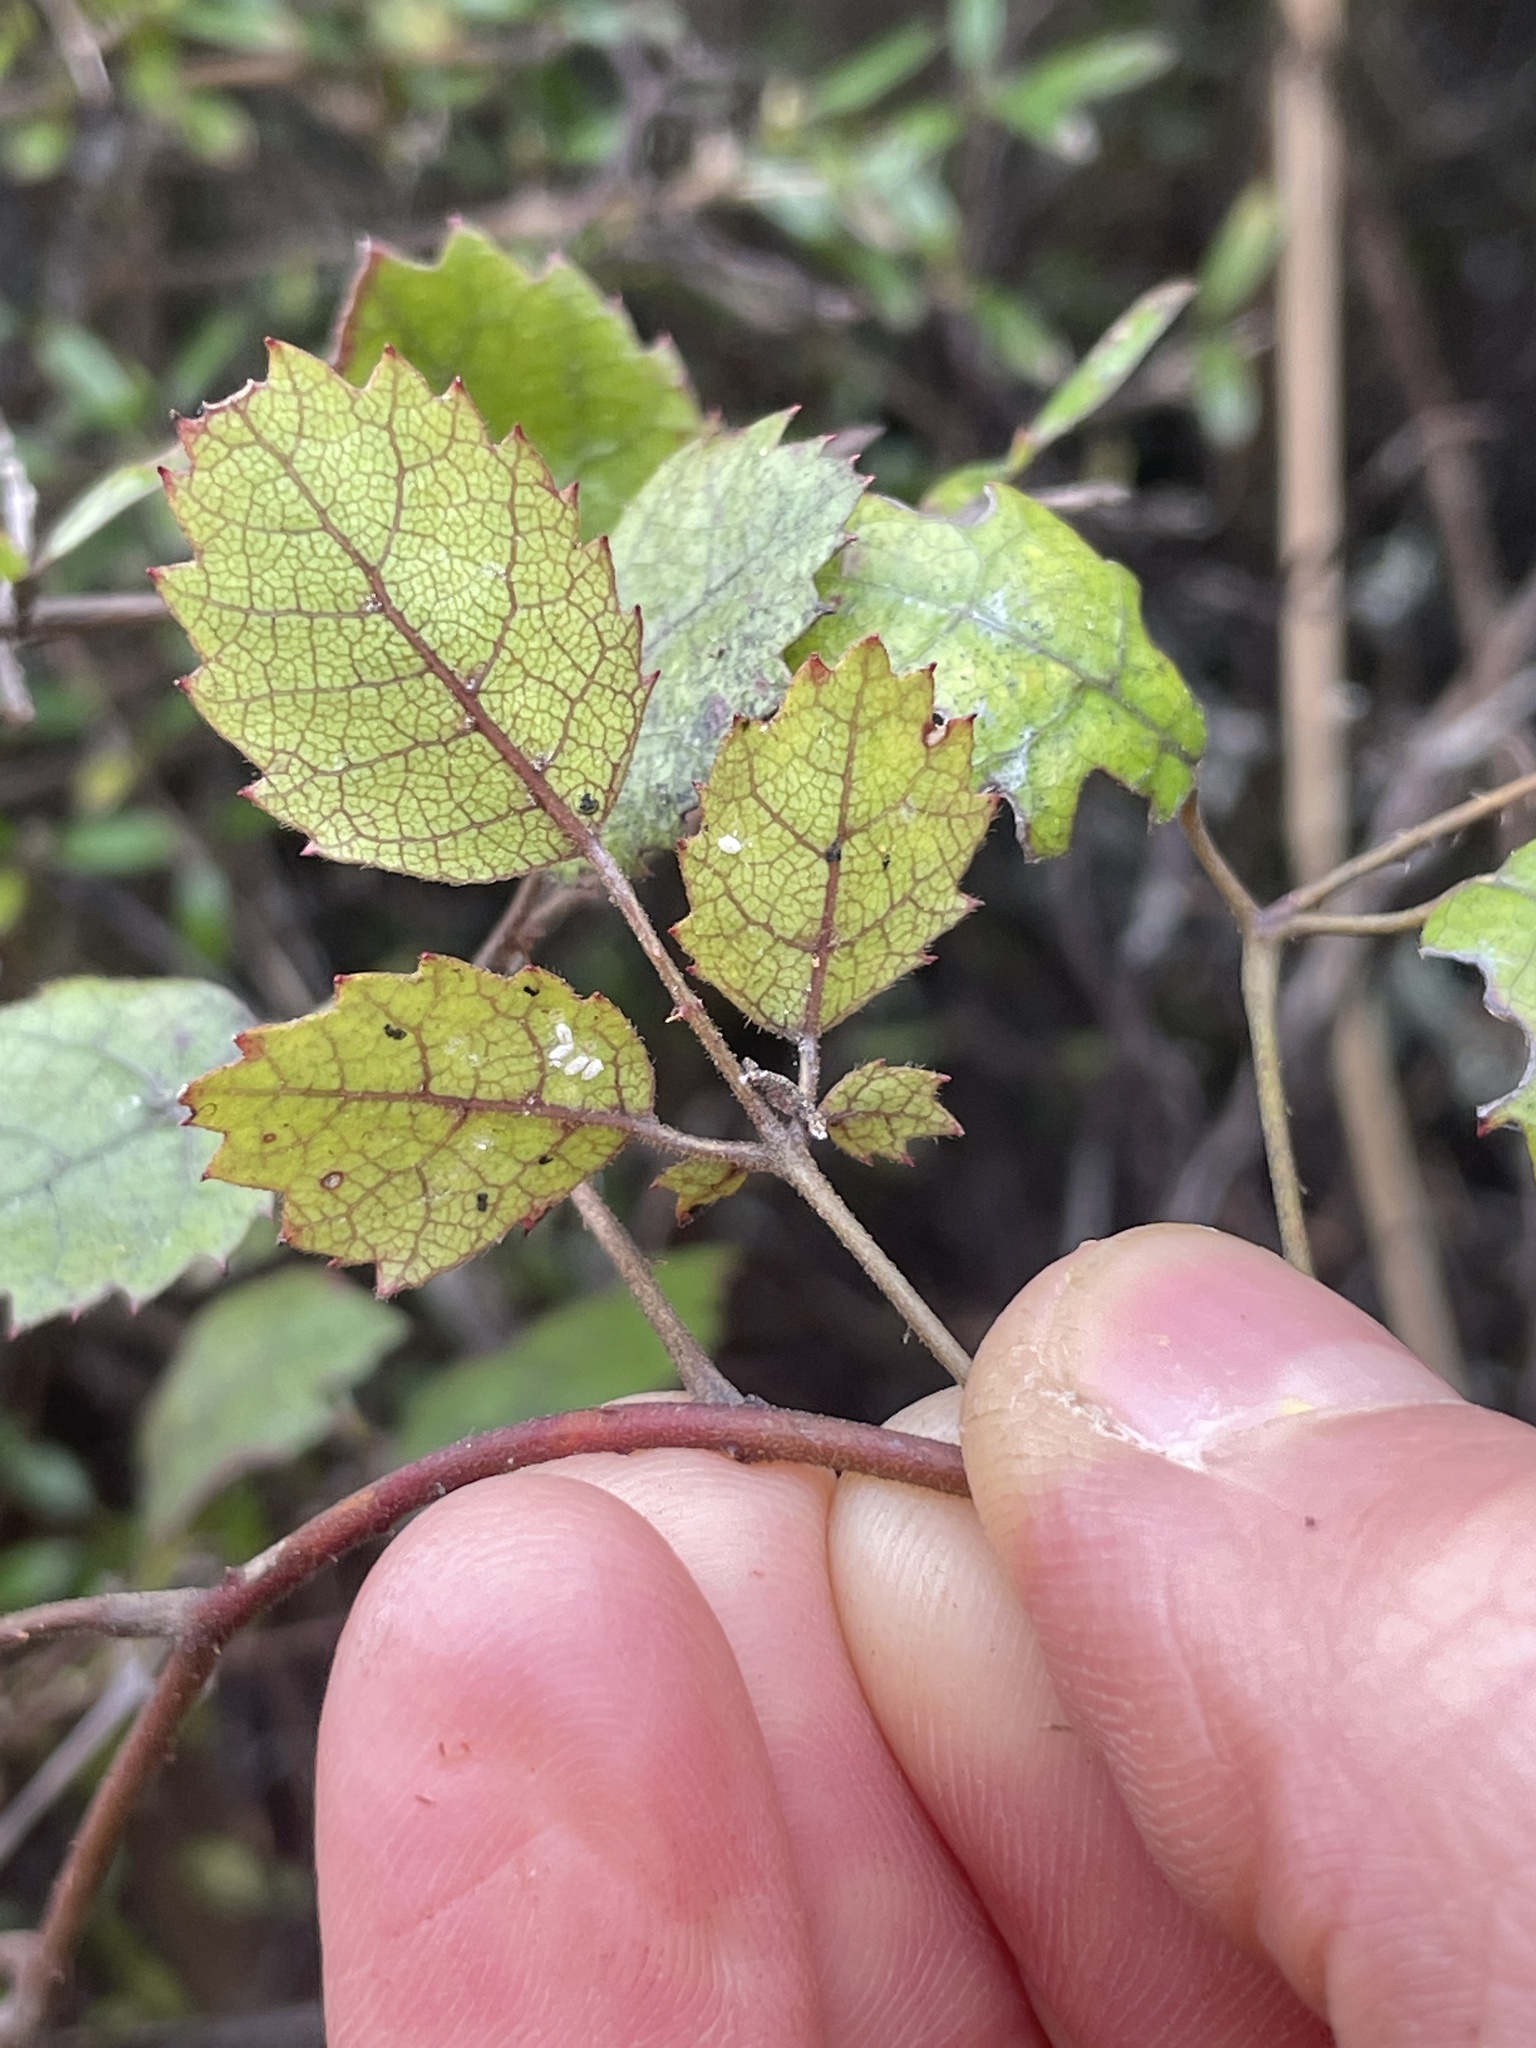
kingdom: Plantae
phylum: Tracheophyta
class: Magnoliopsida
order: Rosales
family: Rosaceae
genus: Rubus
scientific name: Rubus australis
